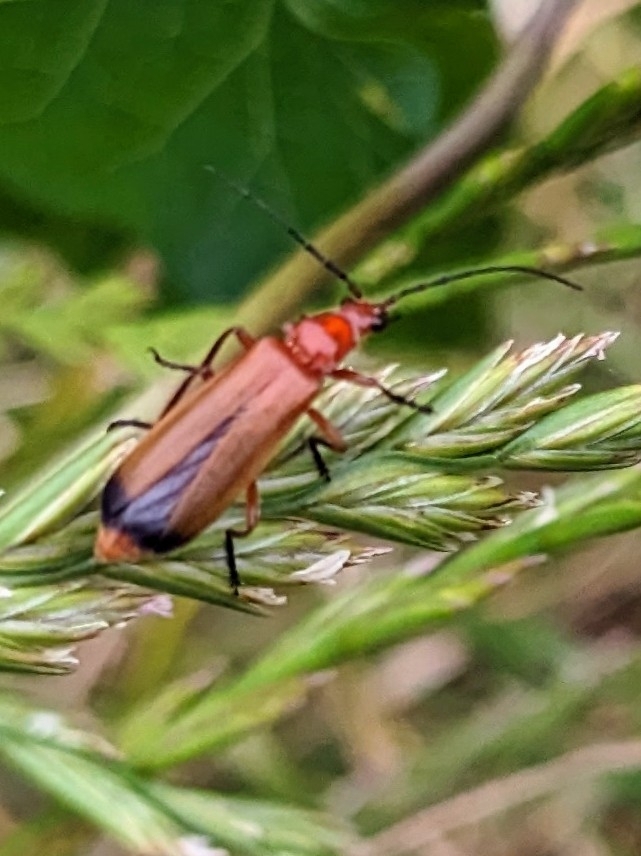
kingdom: Animalia
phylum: Arthropoda
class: Insecta
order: Coleoptera
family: Cantharidae
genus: Rhagonycha
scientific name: Rhagonycha fulva
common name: Common red soldier beetle
